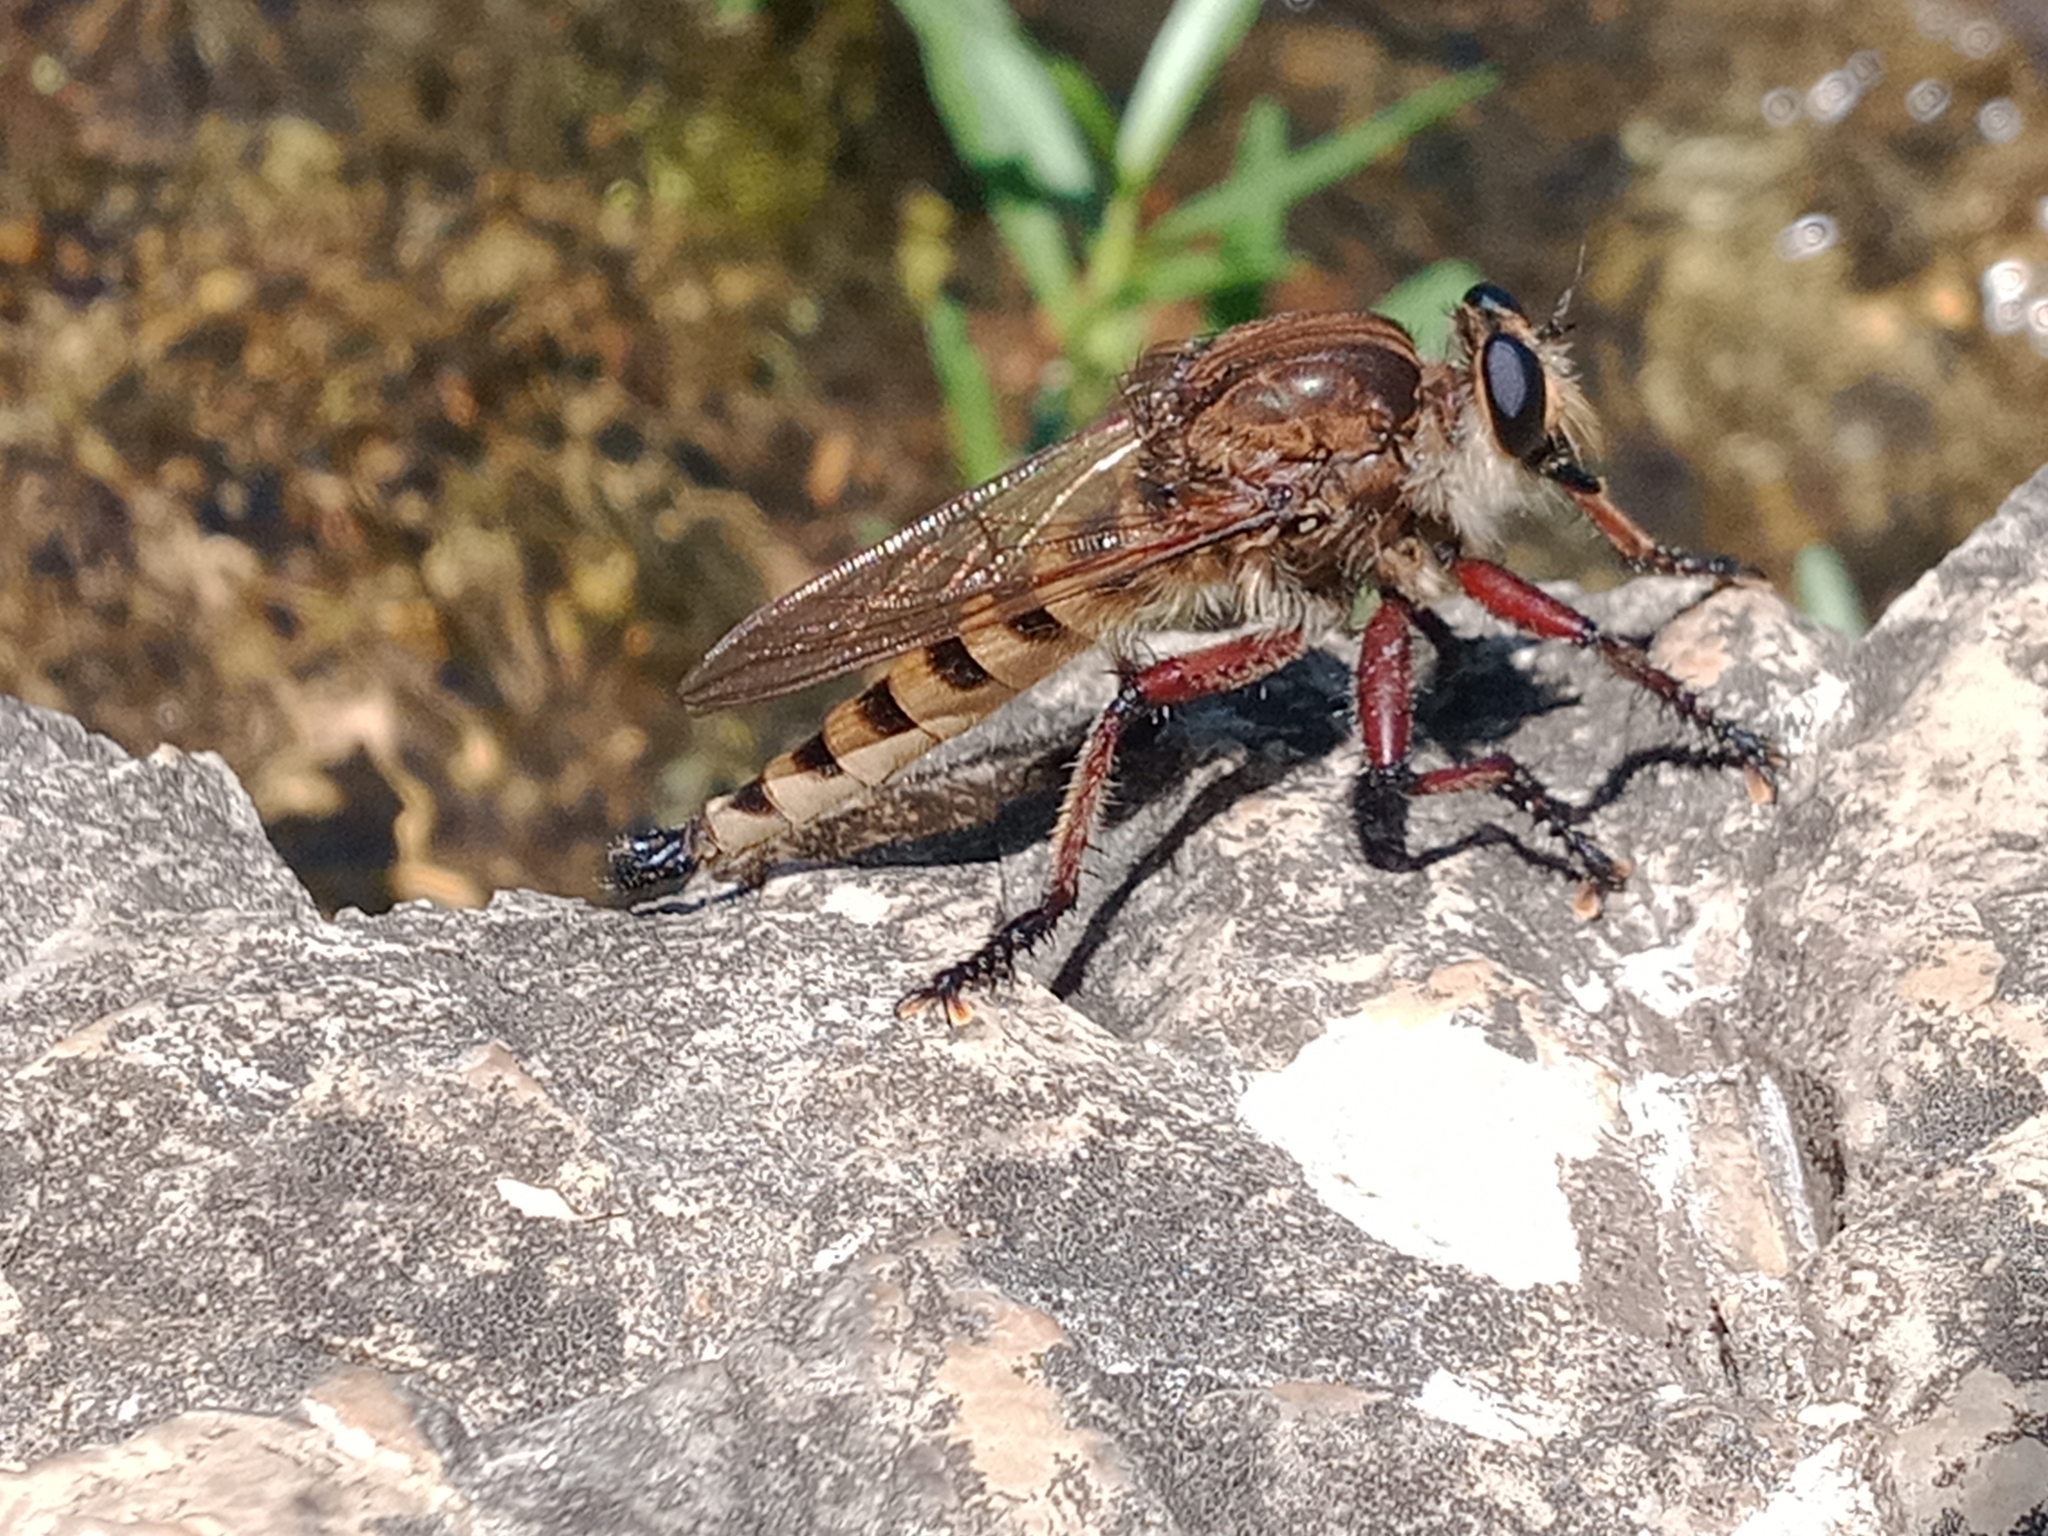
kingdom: Animalia
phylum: Arthropoda
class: Insecta
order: Diptera
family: Asilidae
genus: Promachus
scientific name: Promachus hinei
